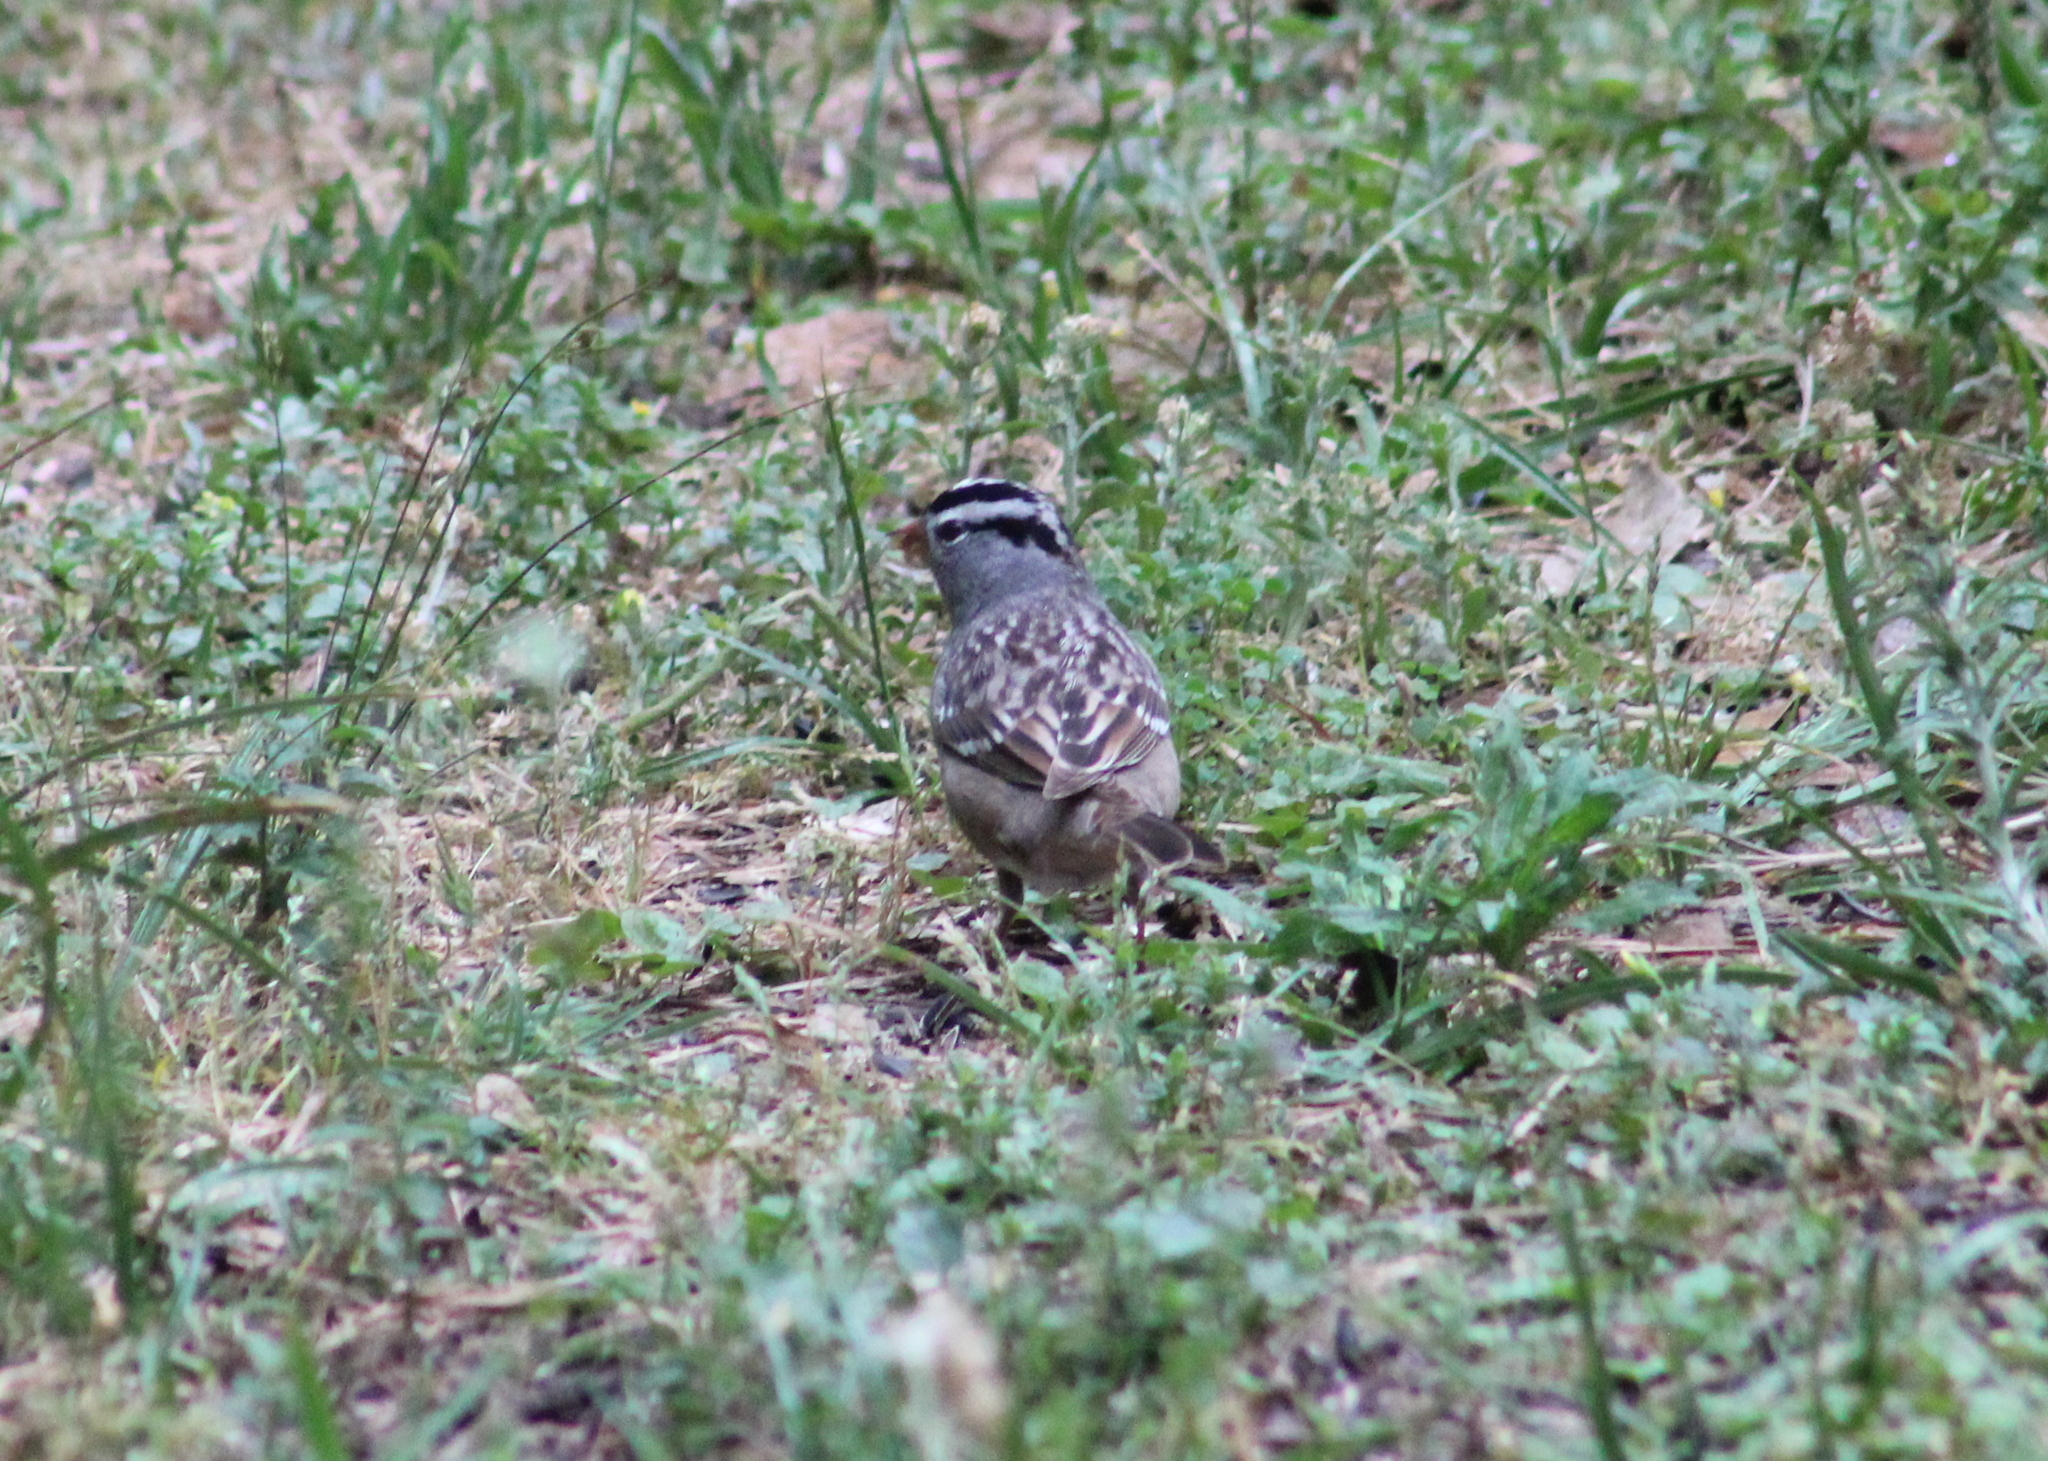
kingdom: Animalia
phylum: Chordata
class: Aves
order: Passeriformes
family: Passerellidae
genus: Zonotrichia
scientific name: Zonotrichia leucophrys
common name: White-crowned sparrow
